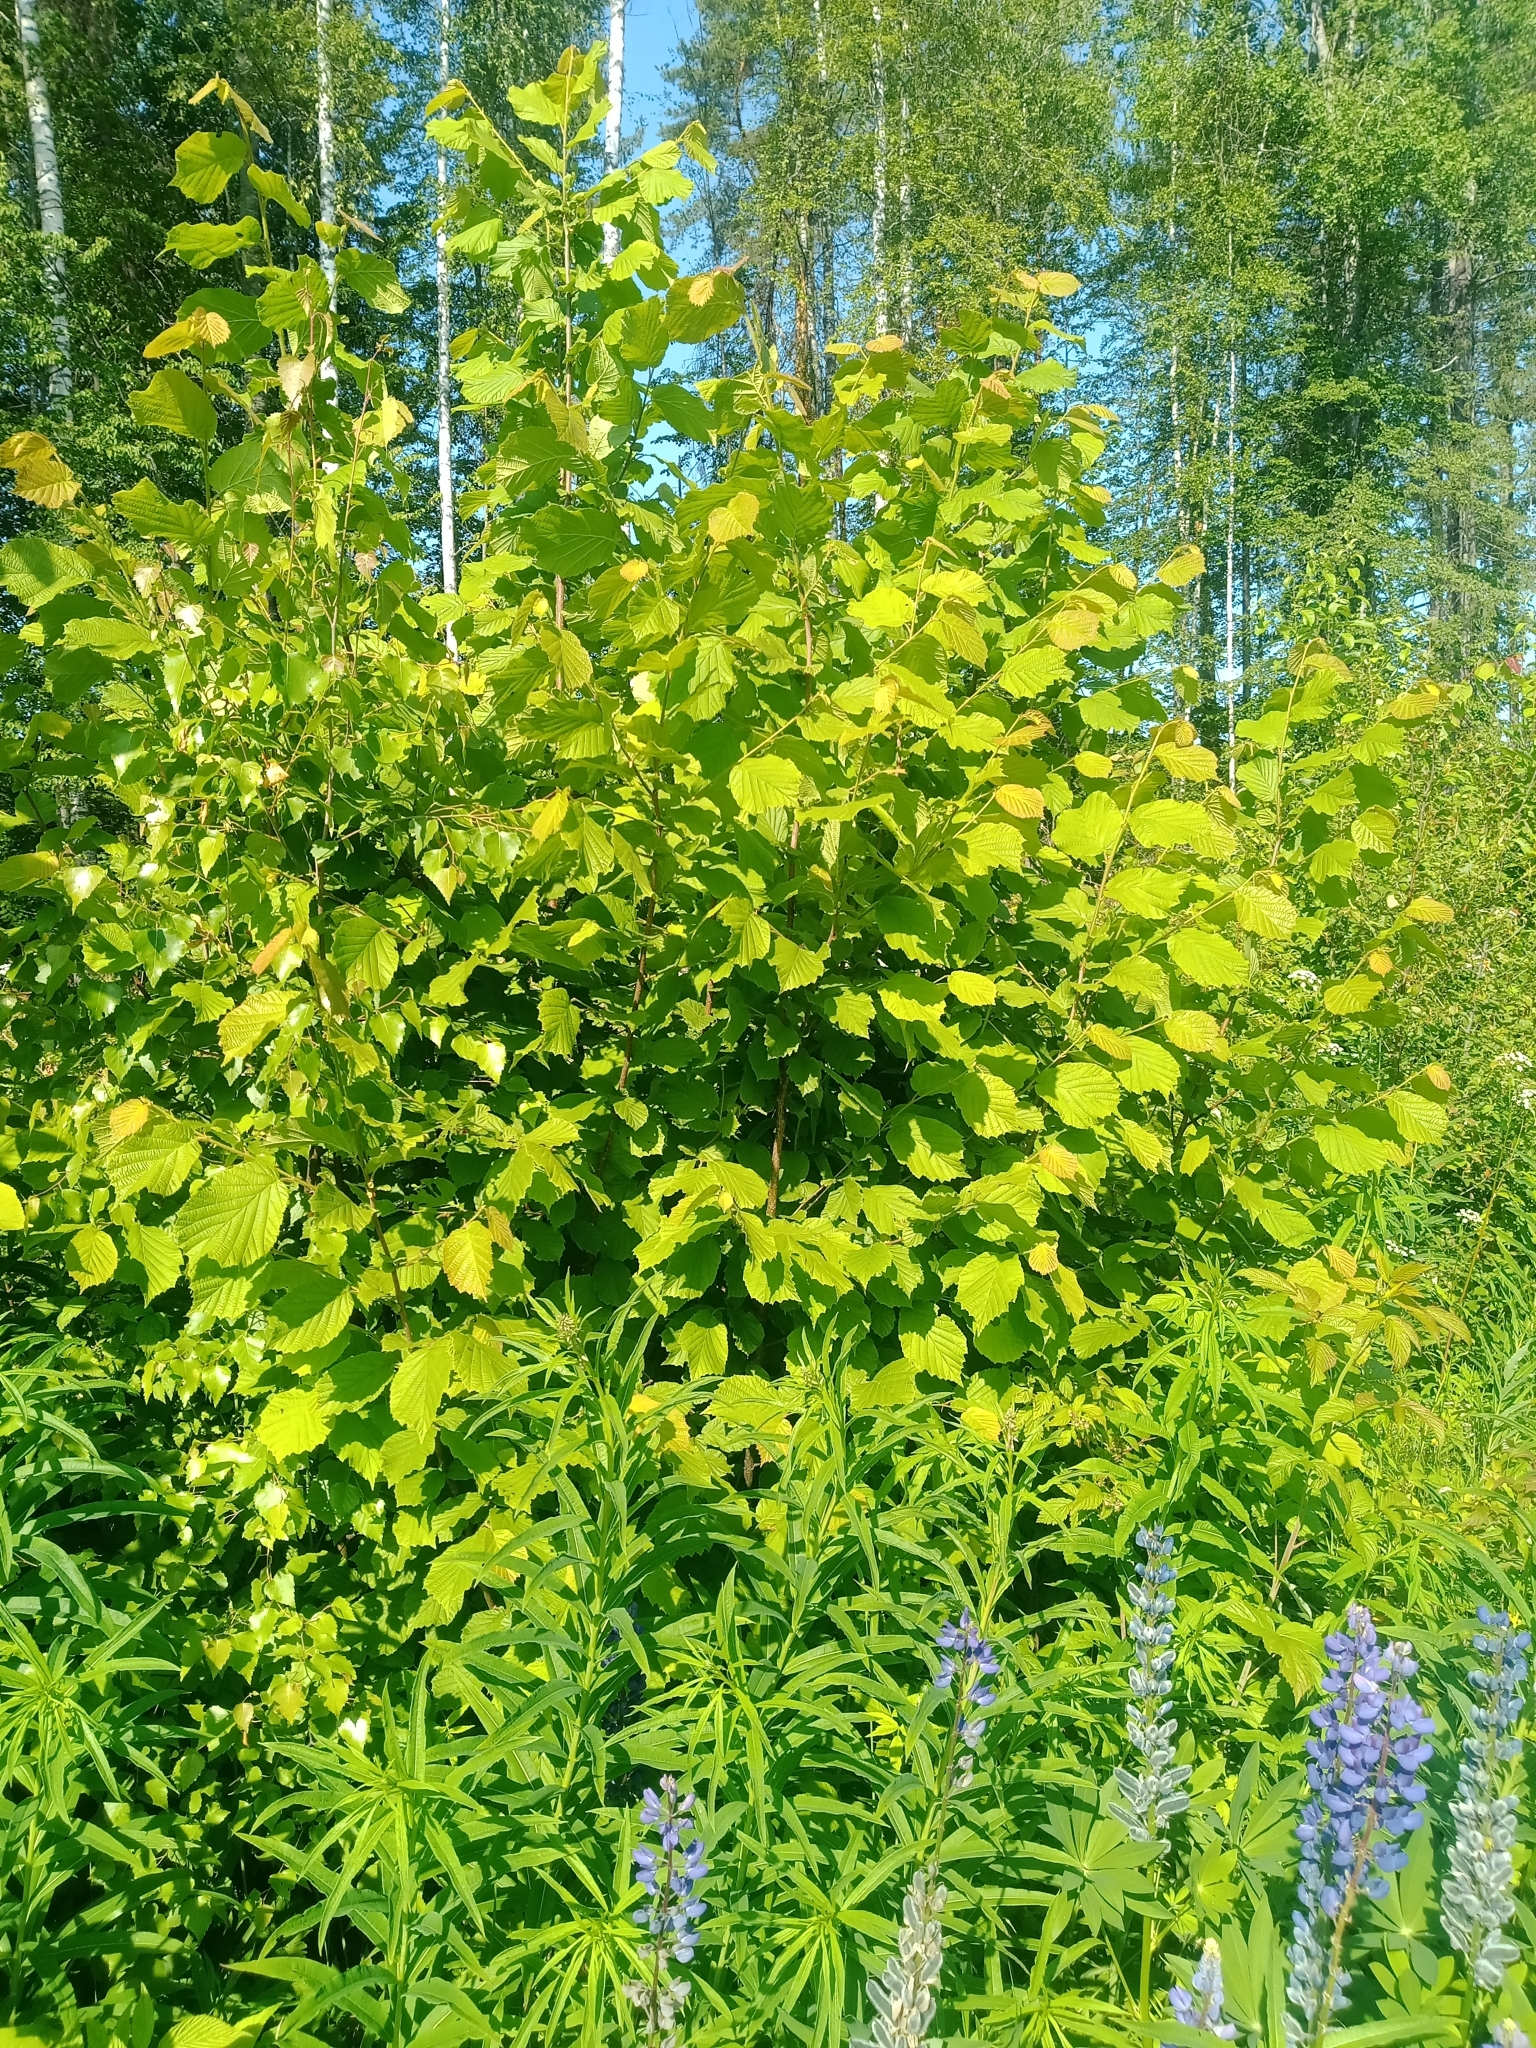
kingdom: Plantae
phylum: Tracheophyta
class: Magnoliopsida
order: Fagales
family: Betulaceae
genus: Corylus
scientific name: Corylus avellana
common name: European hazel
